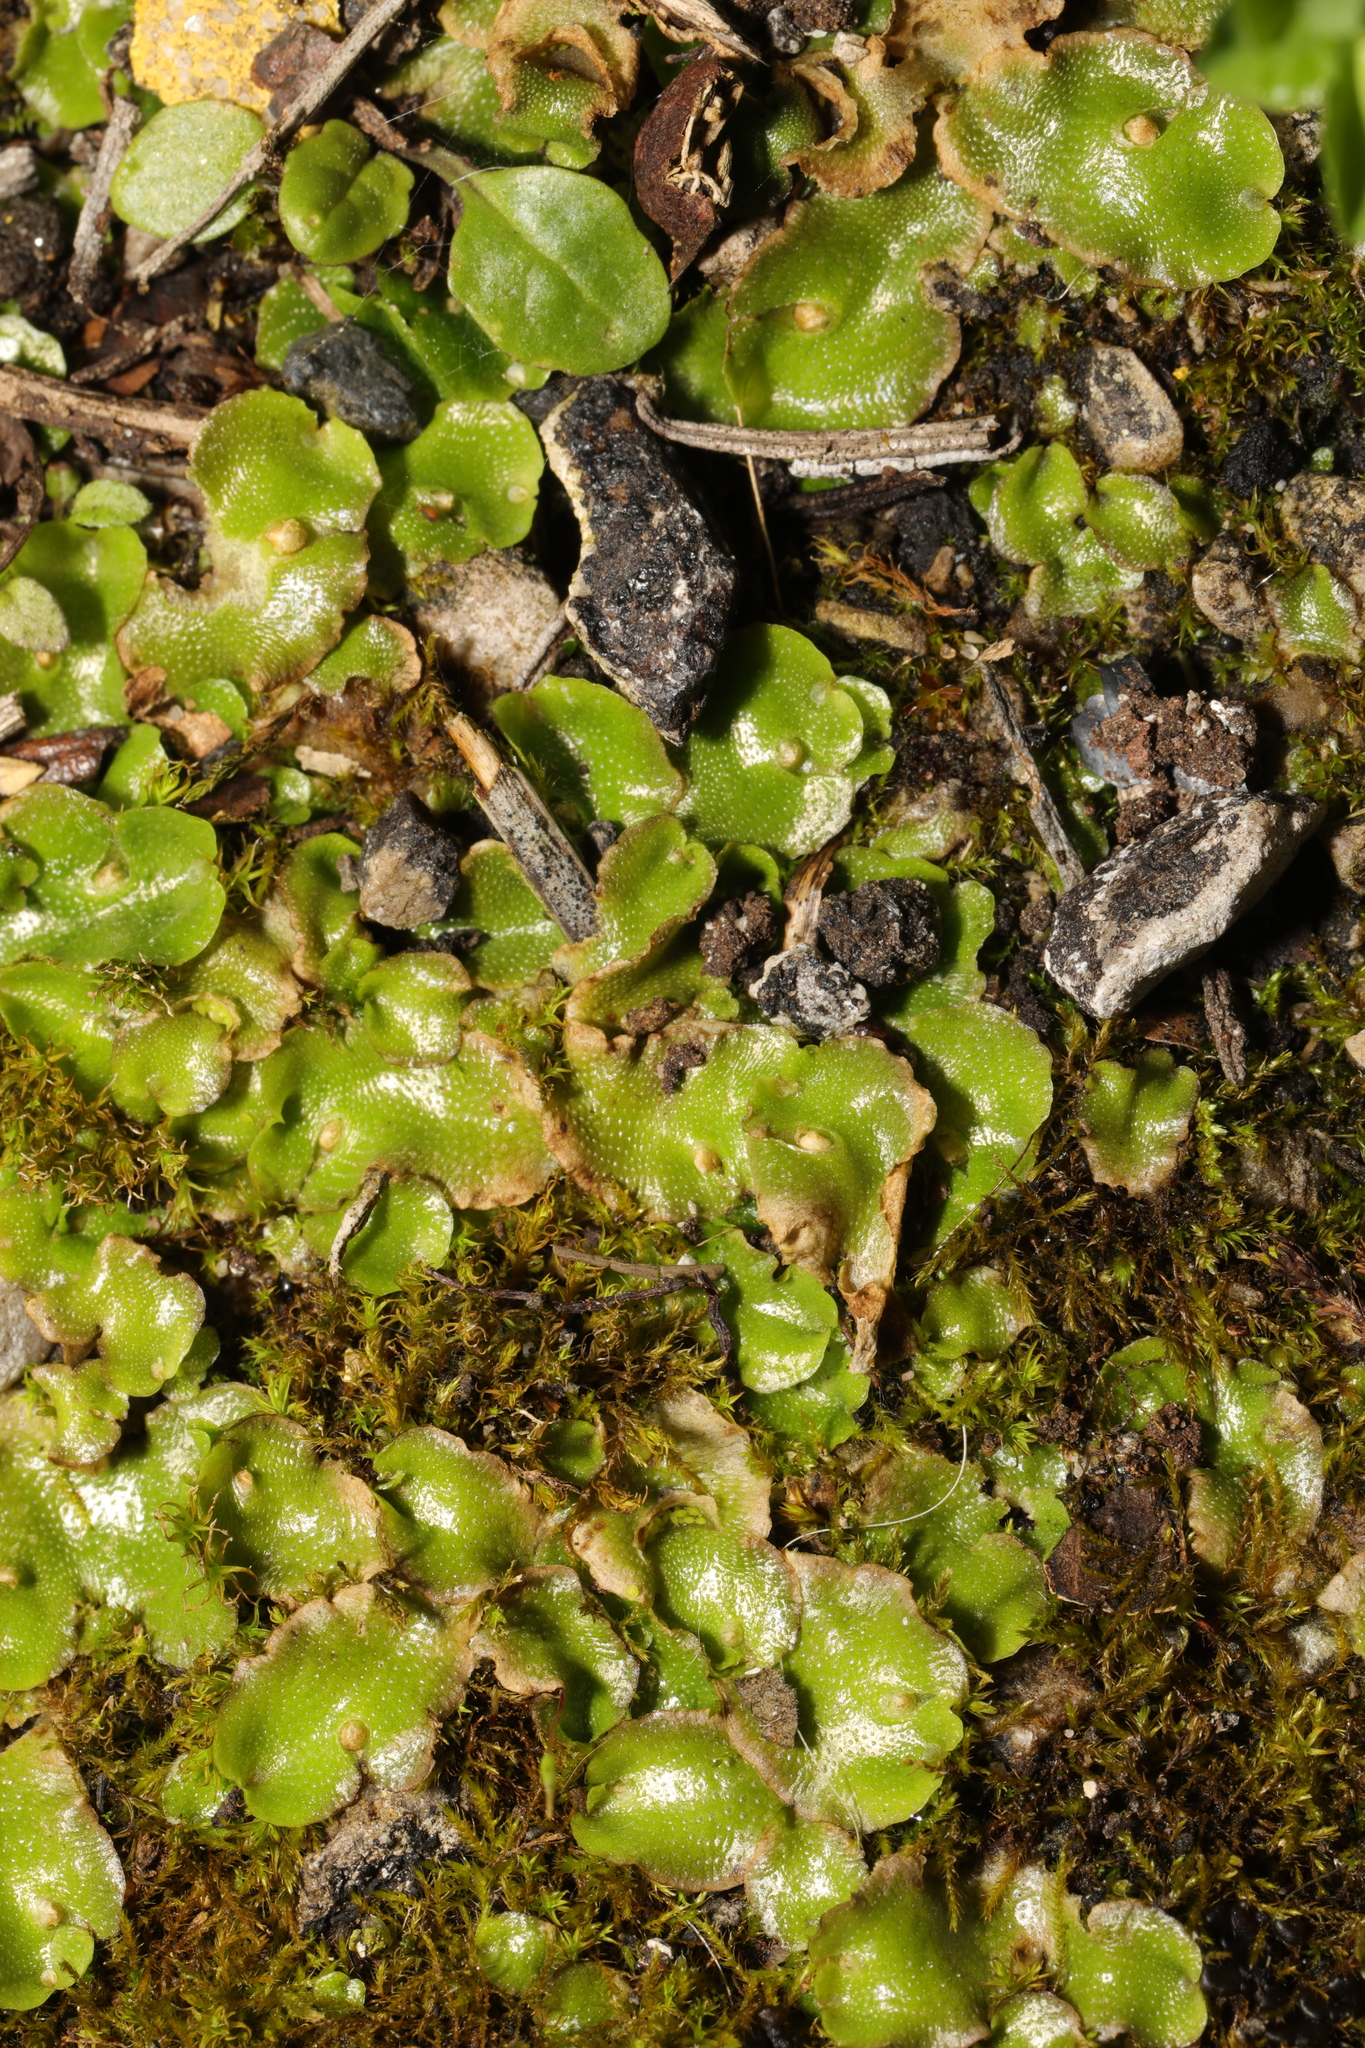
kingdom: Plantae
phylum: Marchantiophyta
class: Marchantiopsida
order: Lunulariales
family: Lunulariaceae
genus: Lunularia
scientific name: Lunularia cruciata
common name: Crescent-cup liverwort
